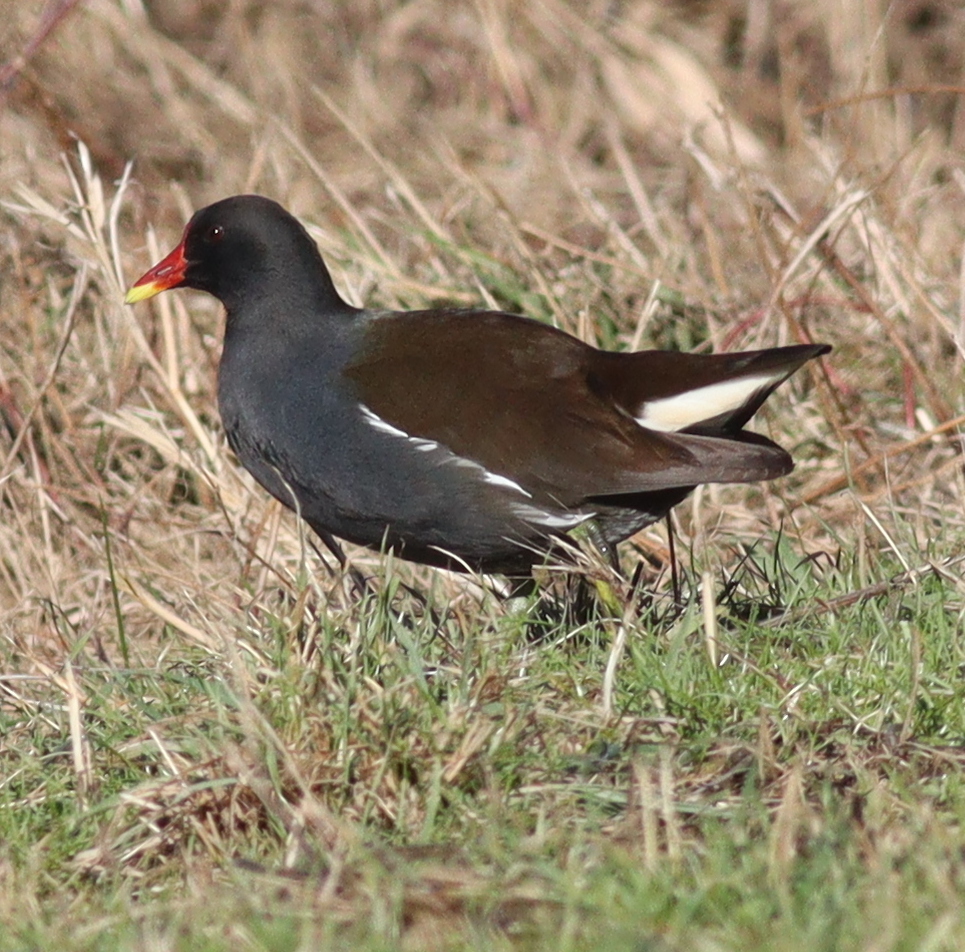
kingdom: Animalia
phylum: Chordata
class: Aves
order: Gruiformes
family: Rallidae
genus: Gallinula
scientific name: Gallinula chloropus
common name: Common moorhen
